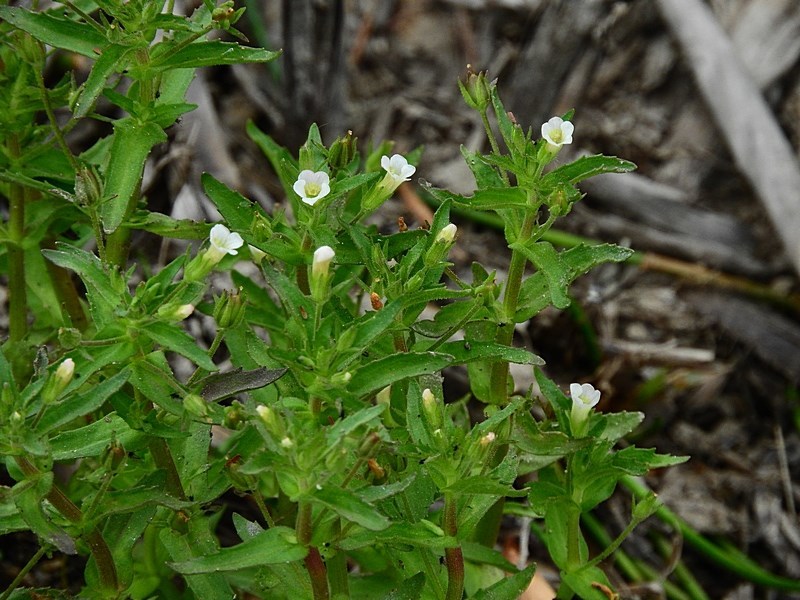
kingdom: Plantae
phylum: Tracheophyta
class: Magnoliopsida
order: Lamiales
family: Plantaginaceae
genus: Gratiola
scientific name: Gratiola pedunculata
